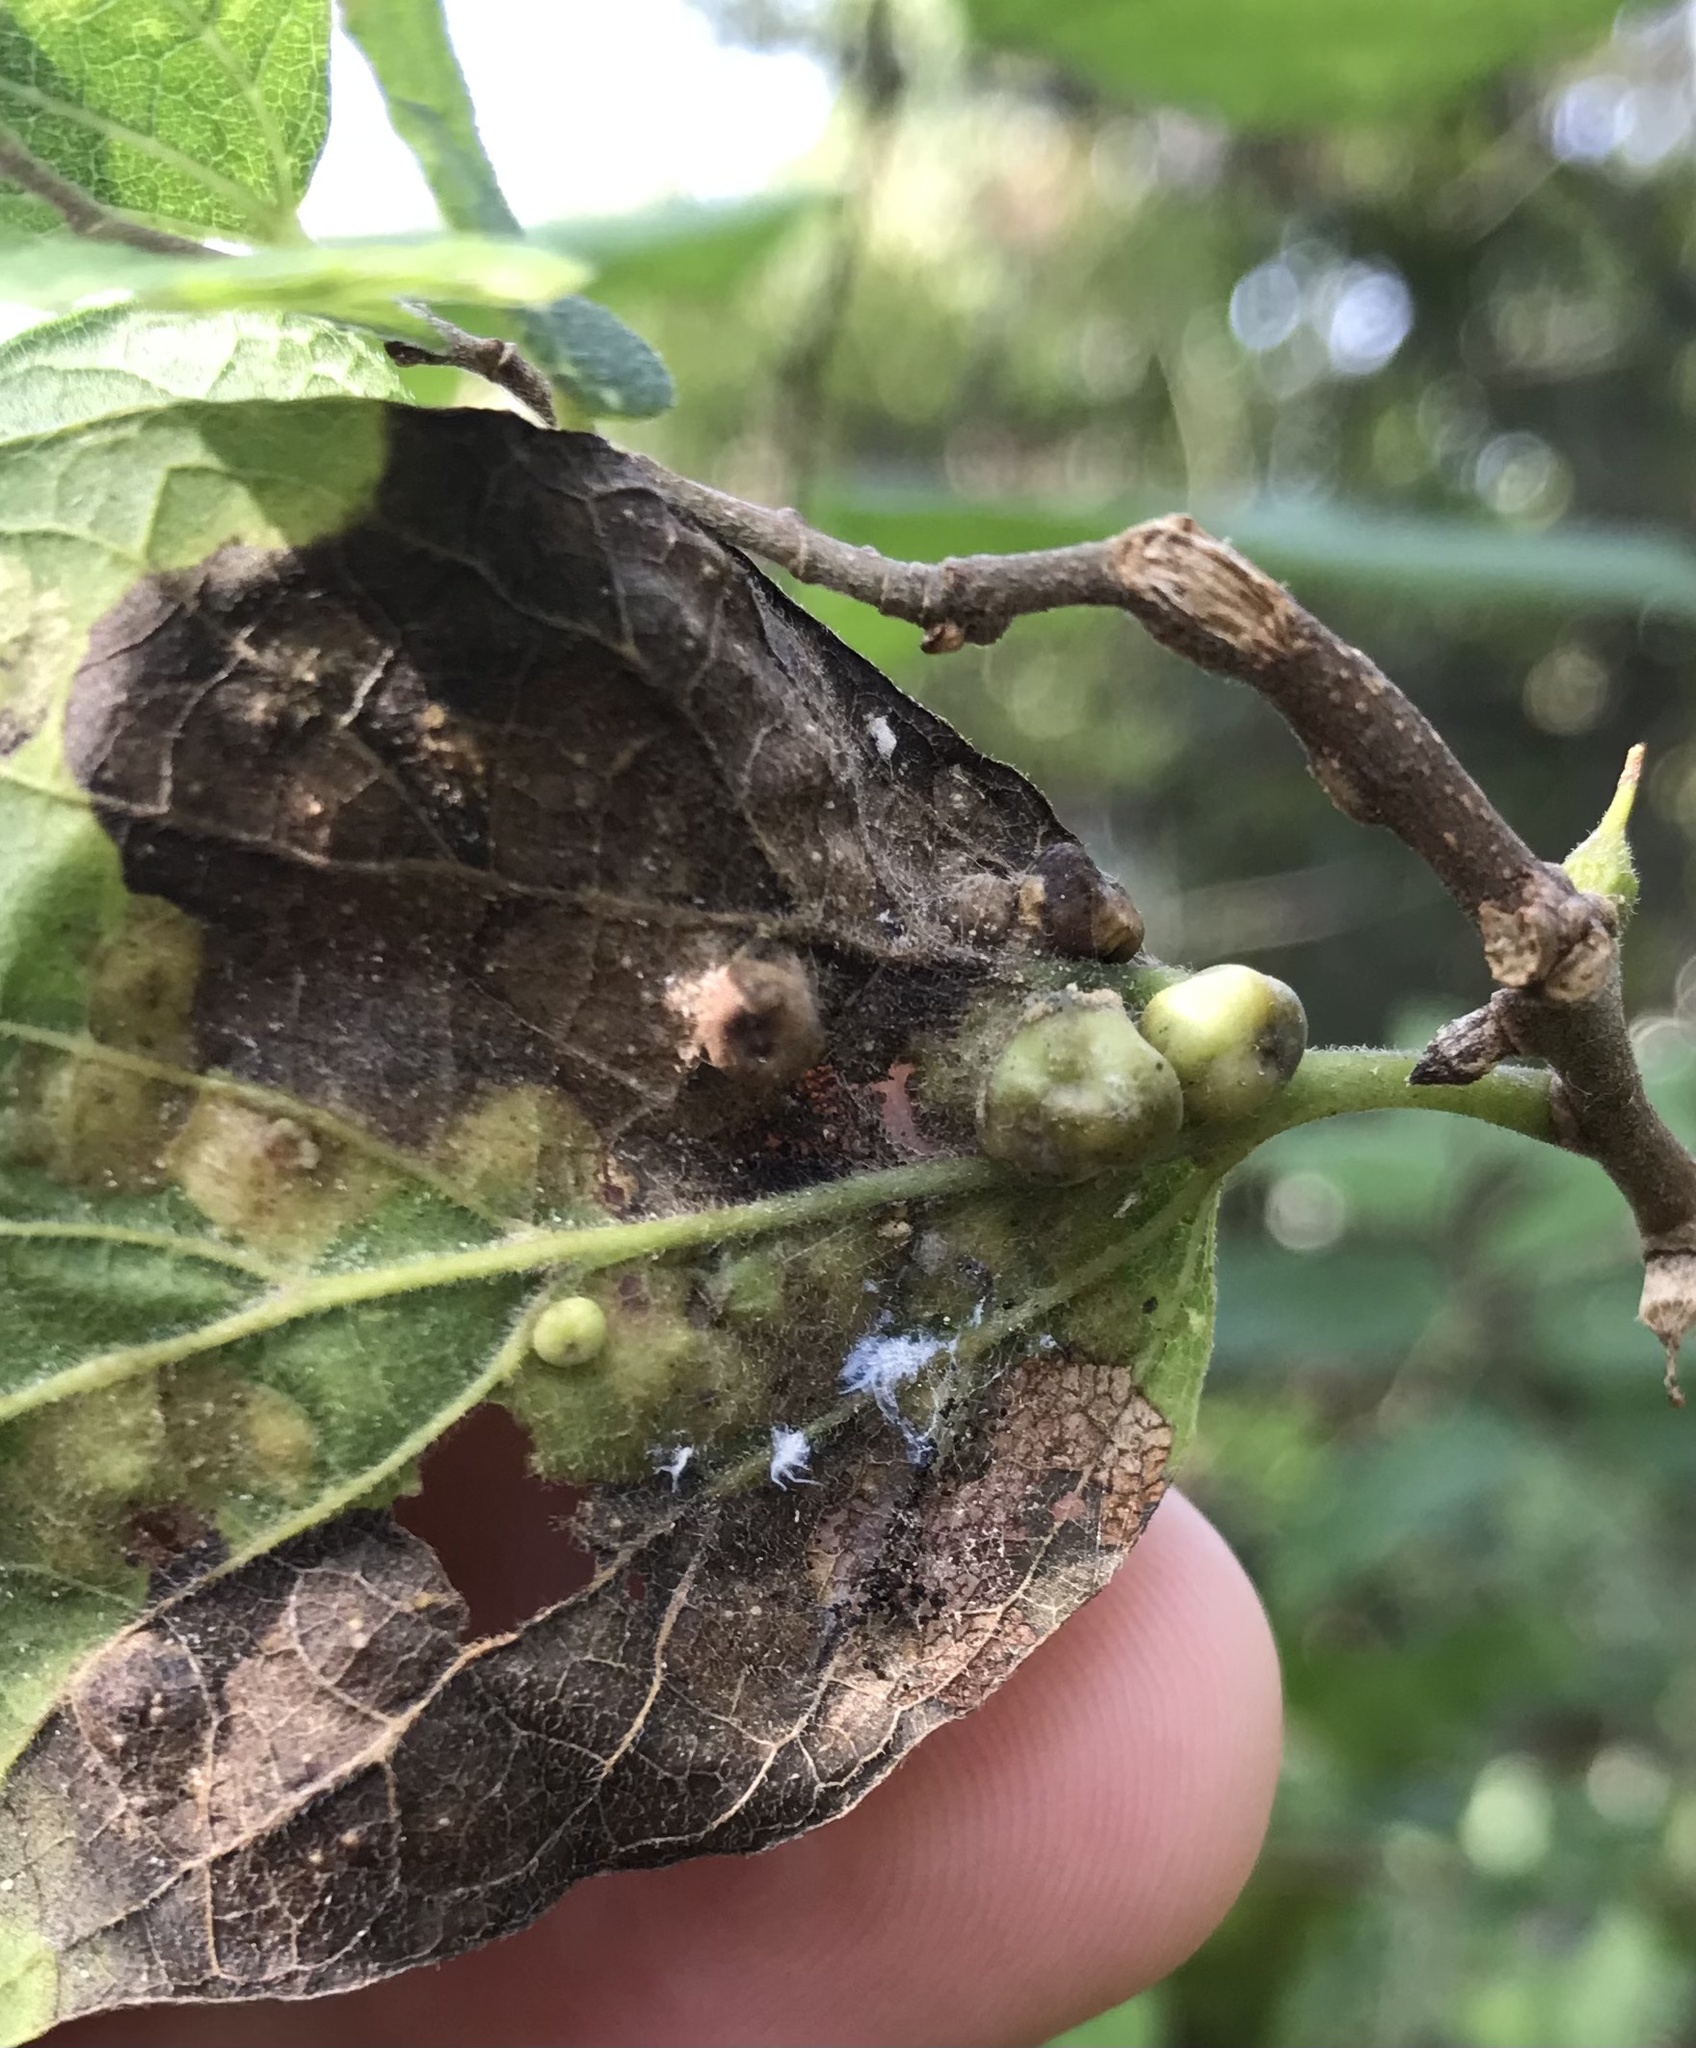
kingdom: Animalia
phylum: Arthropoda
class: Insecta
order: Diptera
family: Cecidomyiidae
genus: Celticecis
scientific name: Celticecis ramicola
